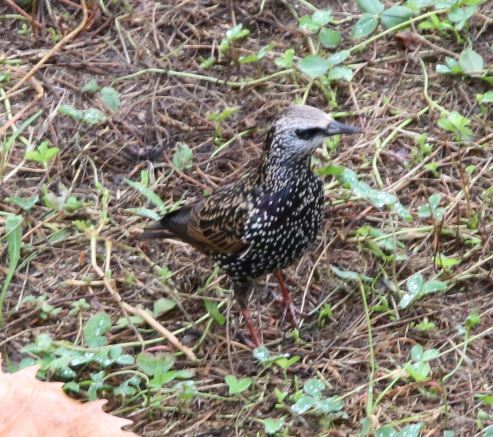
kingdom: Animalia
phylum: Chordata
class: Aves
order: Passeriformes
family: Sturnidae
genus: Sturnus
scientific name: Sturnus vulgaris
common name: Common starling
